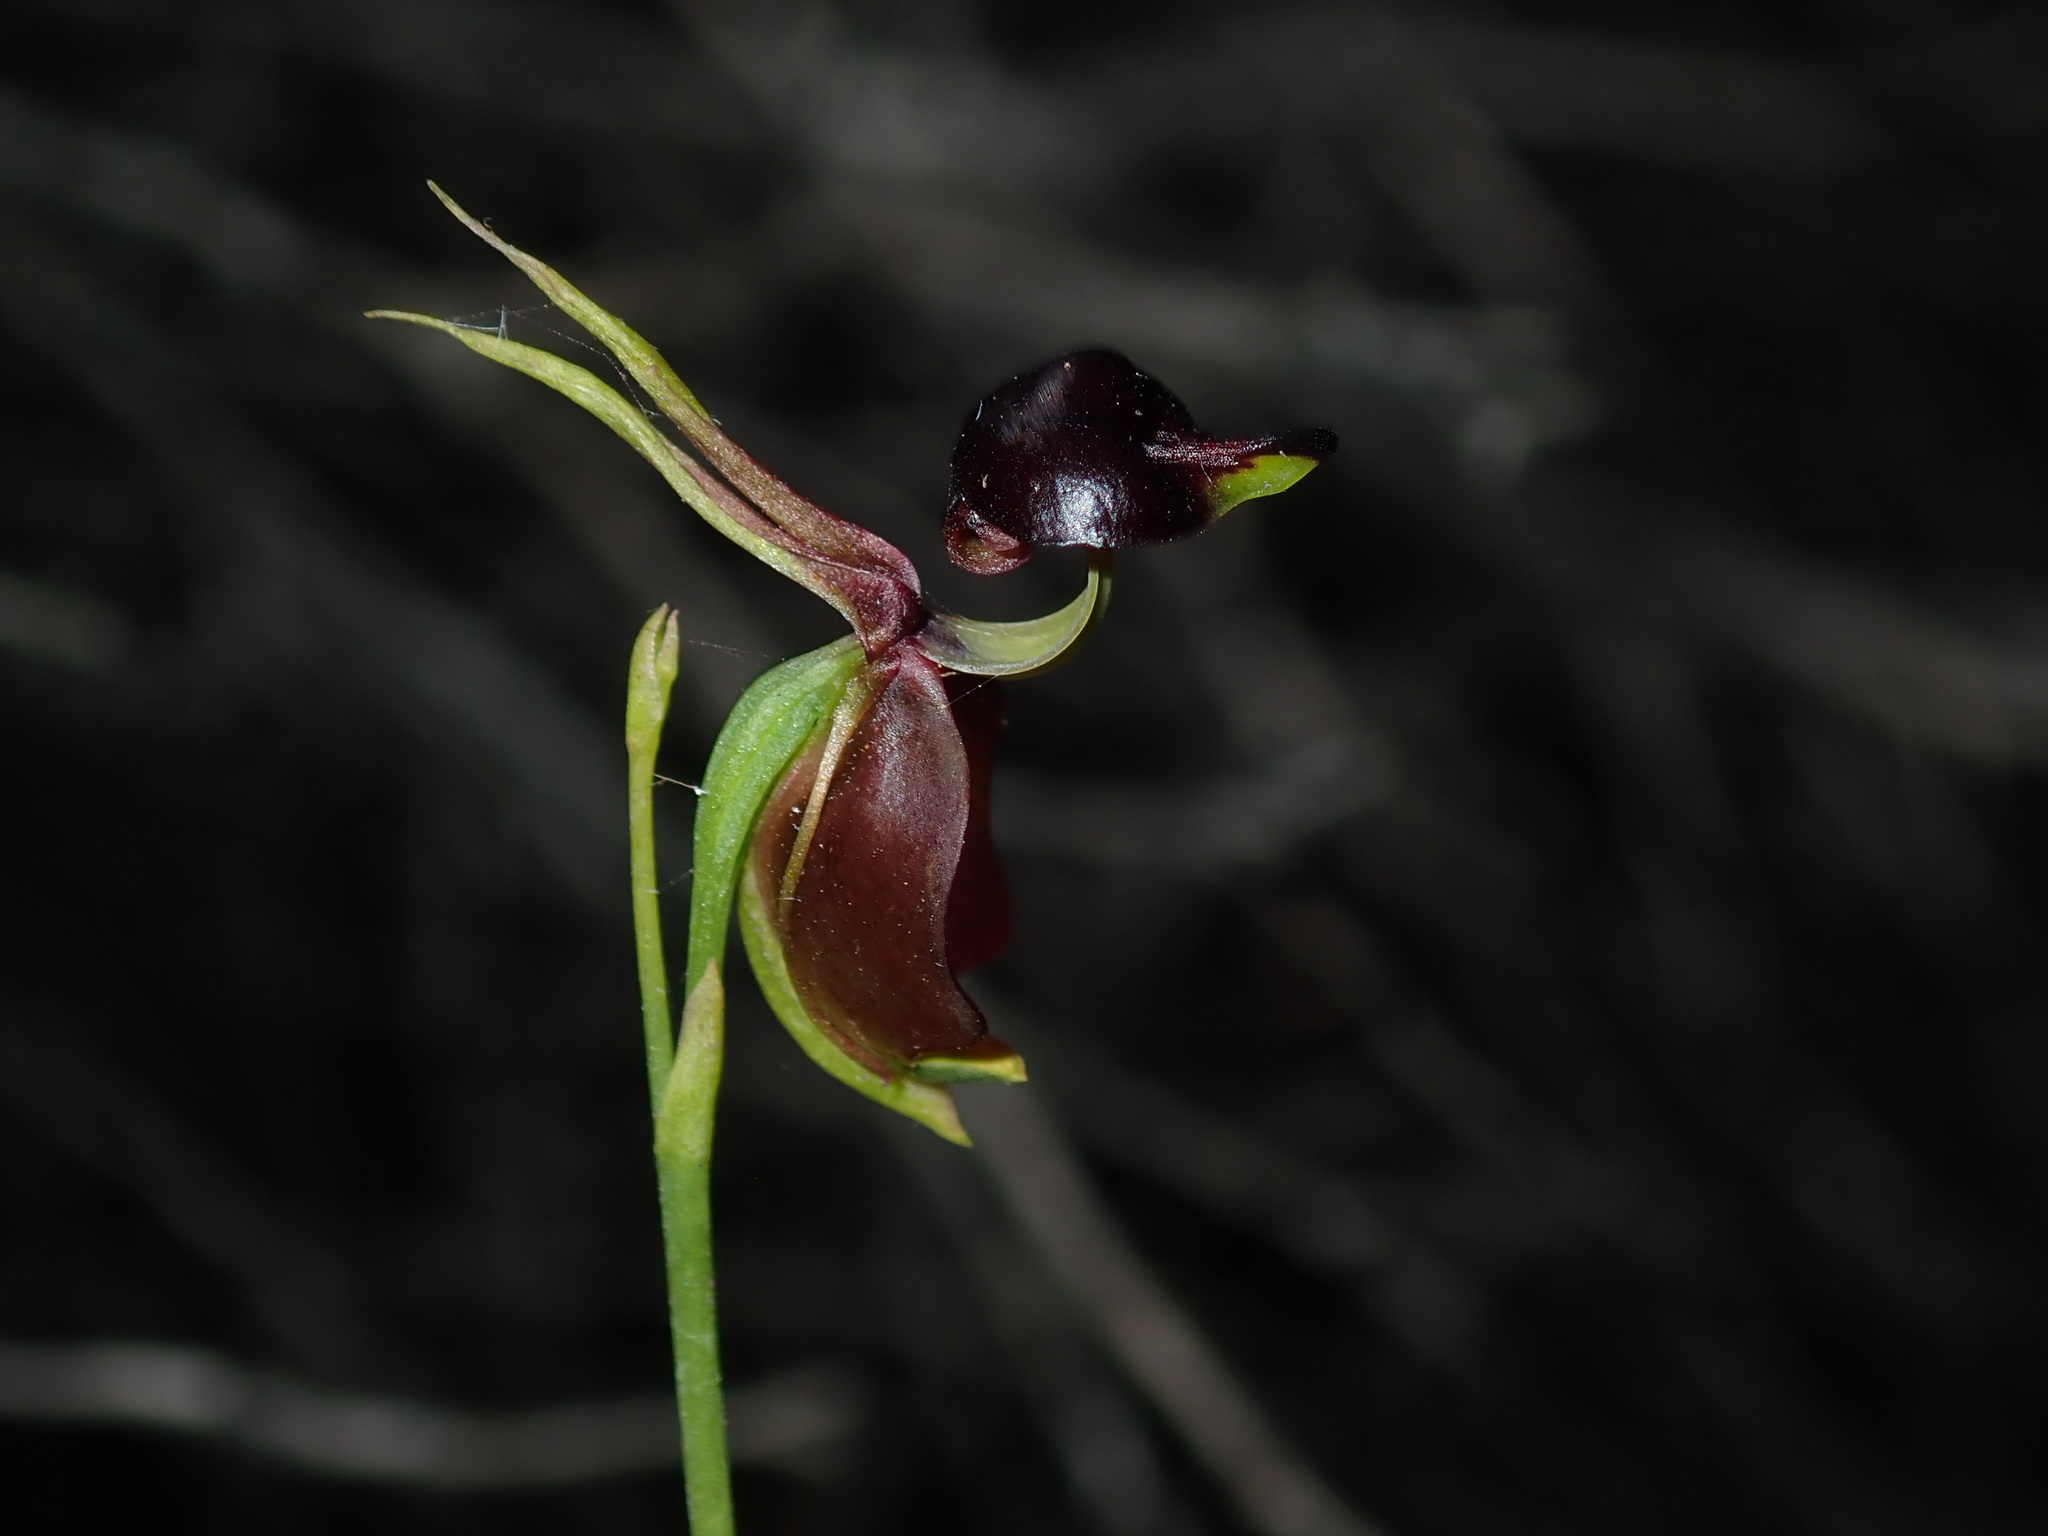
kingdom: Plantae
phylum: Tracheophyta
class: Liliopsida
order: Asparagales
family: Orchidaceae
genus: Caleana
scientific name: Caleana major
